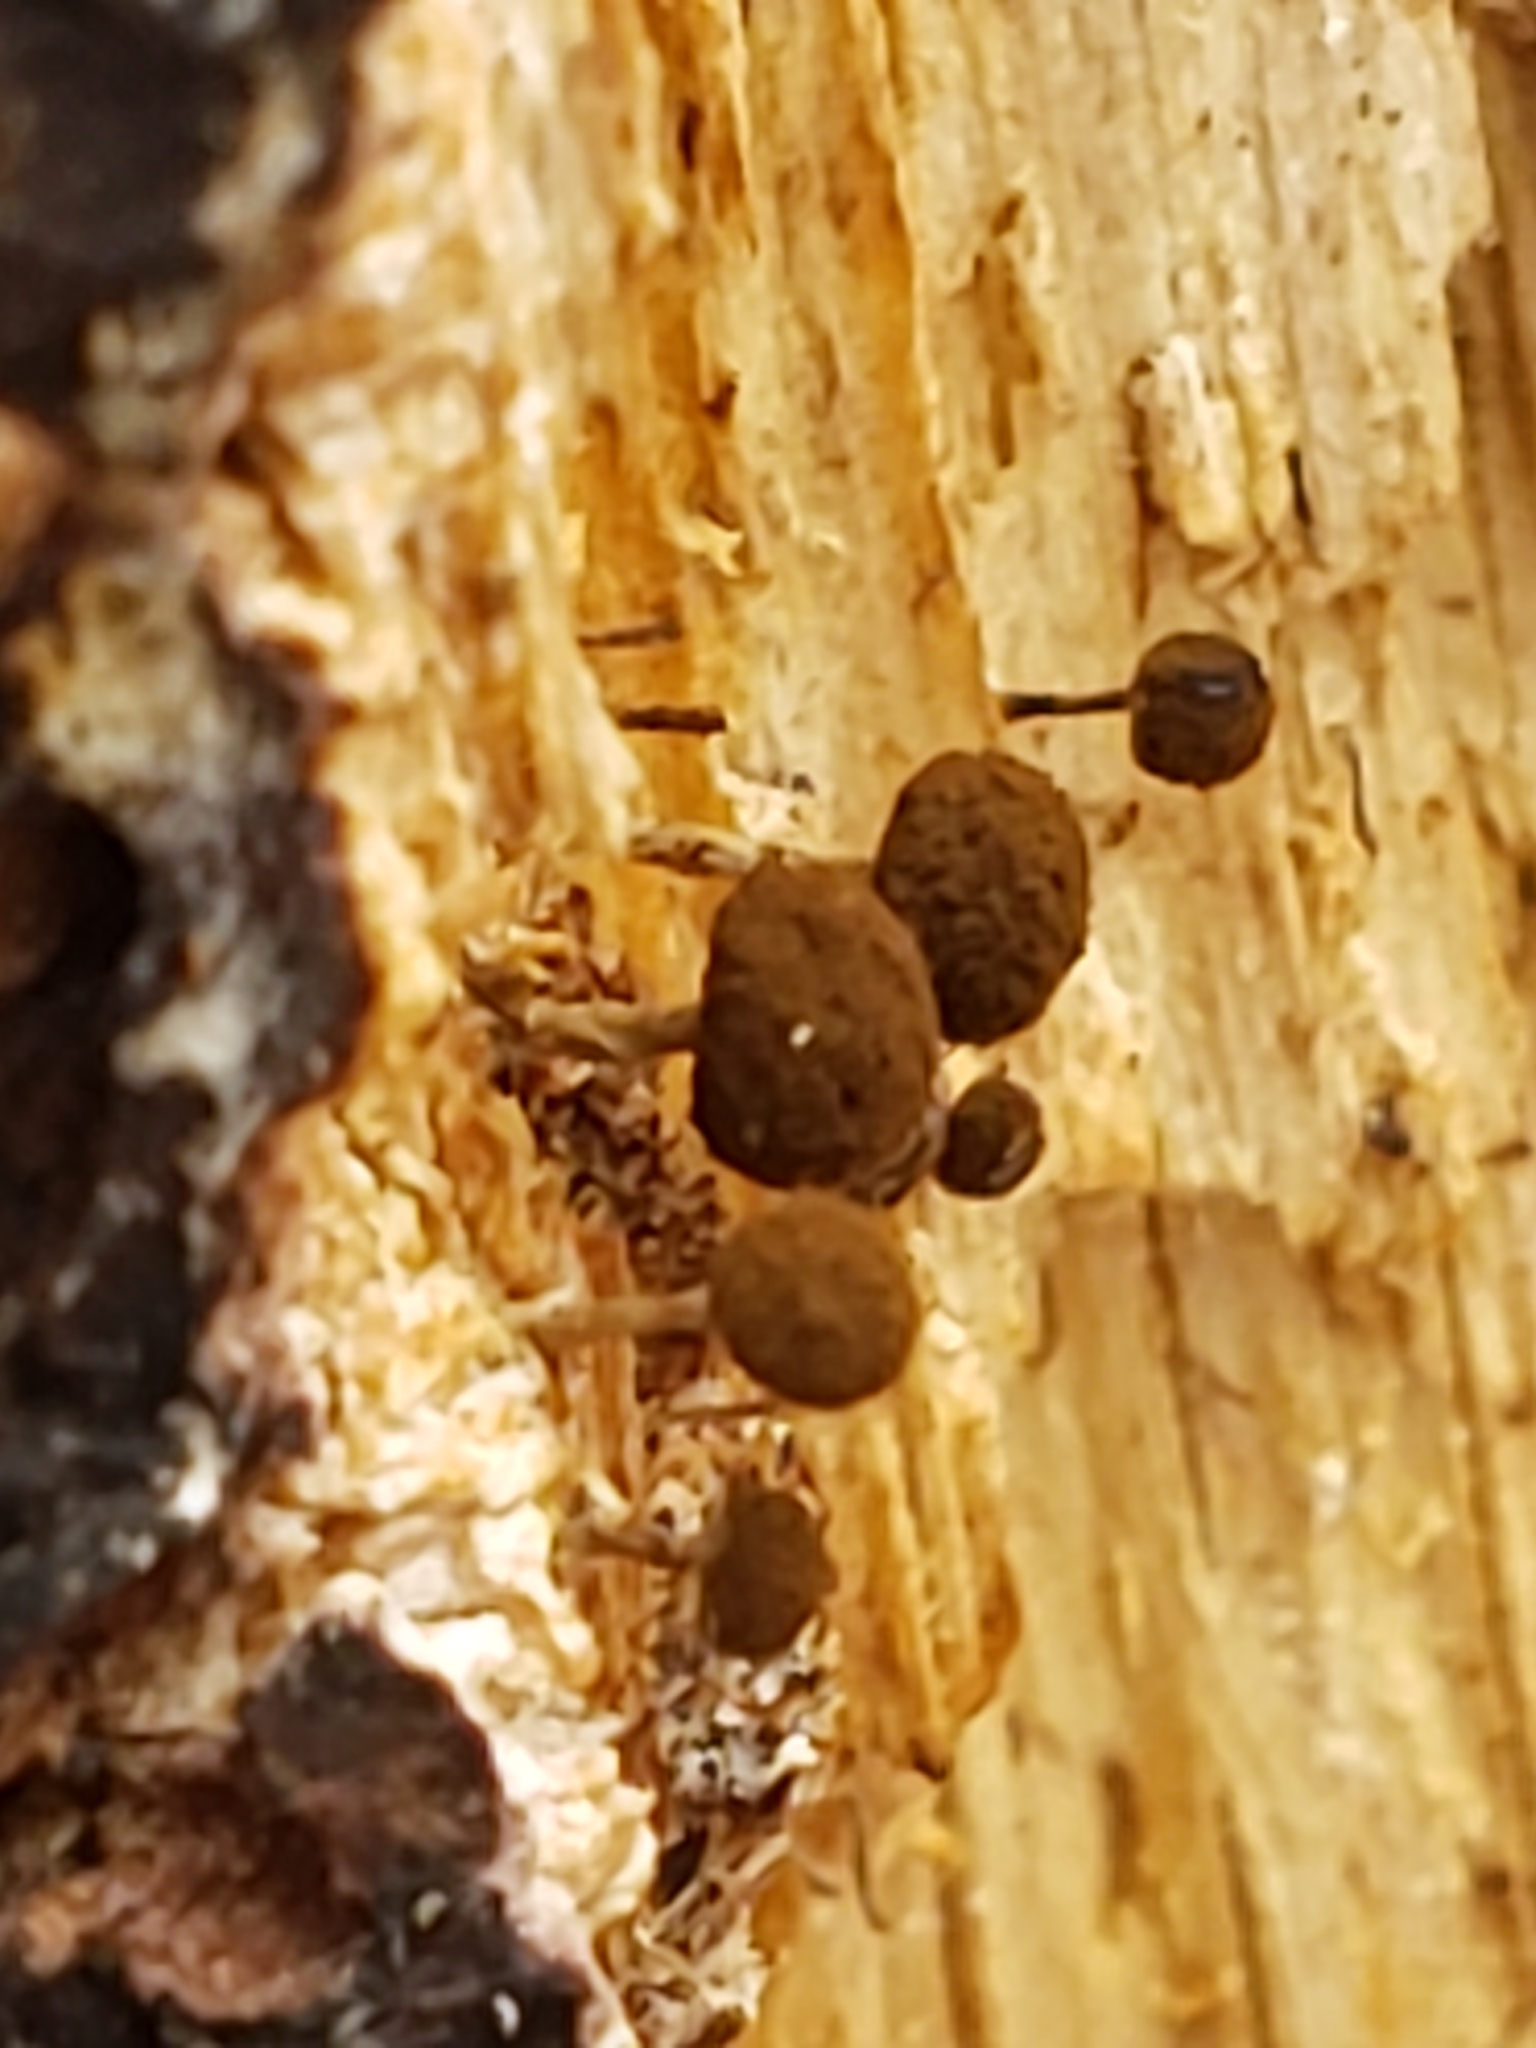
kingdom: Fungi
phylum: Basidiomycota
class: Atractiellomycetes
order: Atractiellales
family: Phleogenaceae
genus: Phleogena
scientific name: Phleogena faginea
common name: Fenugreek stalkball
